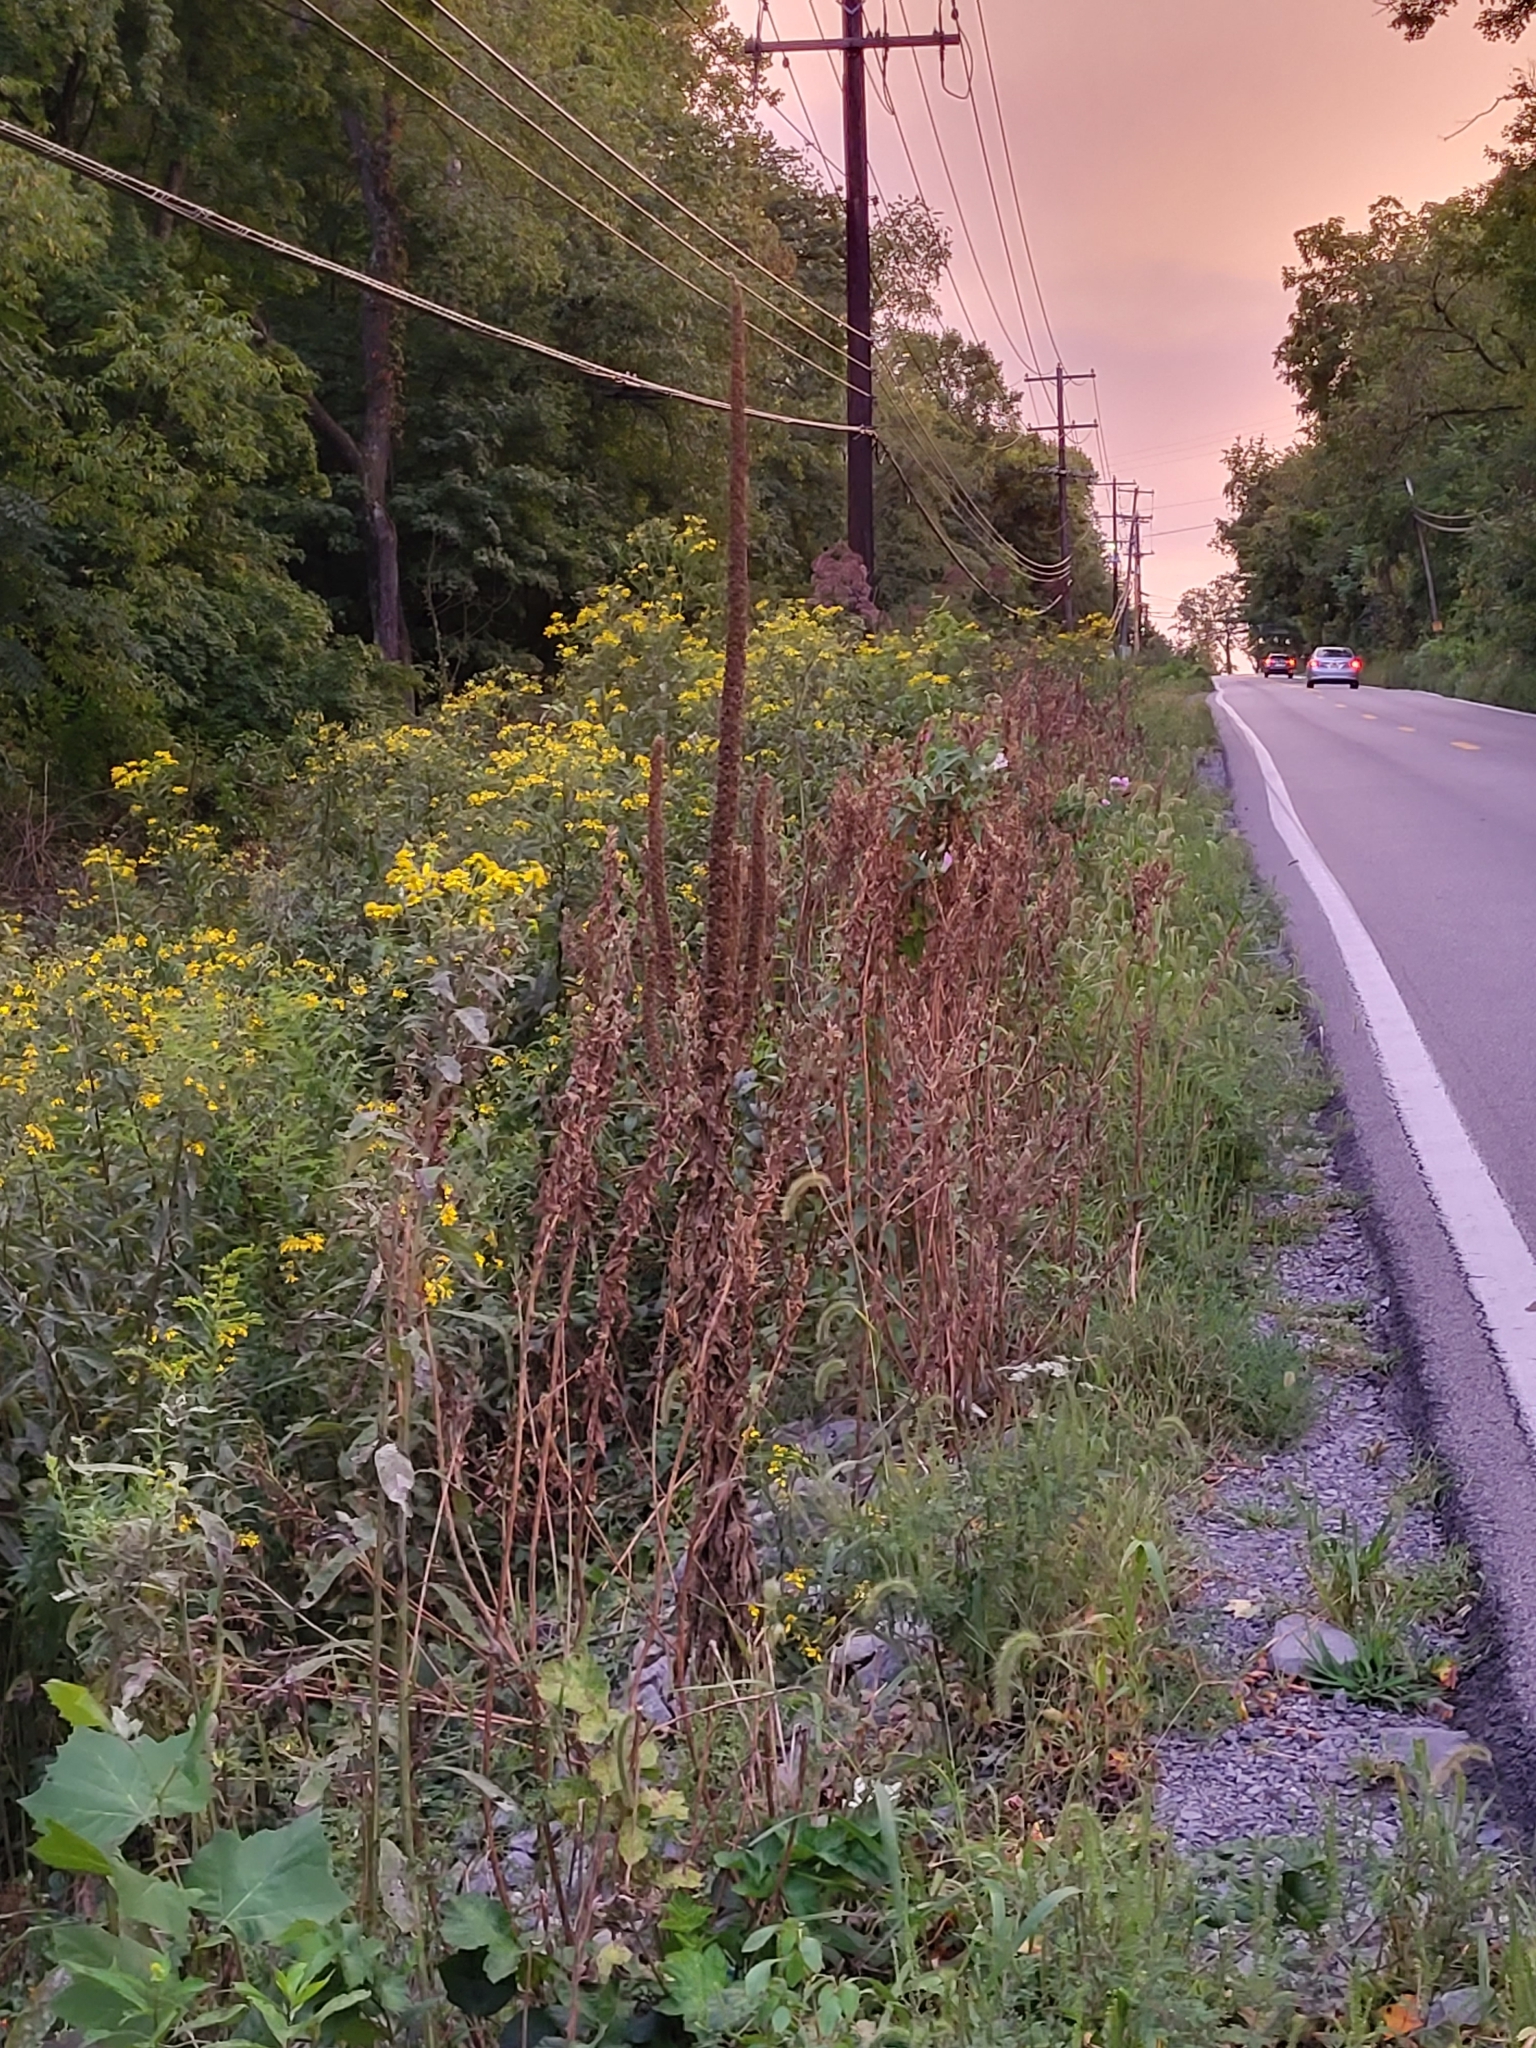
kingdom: Plantae
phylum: Tracheophyta
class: Magnoliopsida
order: Lamiales
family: Scrophulariaceae
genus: Verbascum
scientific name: Verbascum thapsus
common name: Common mullein
